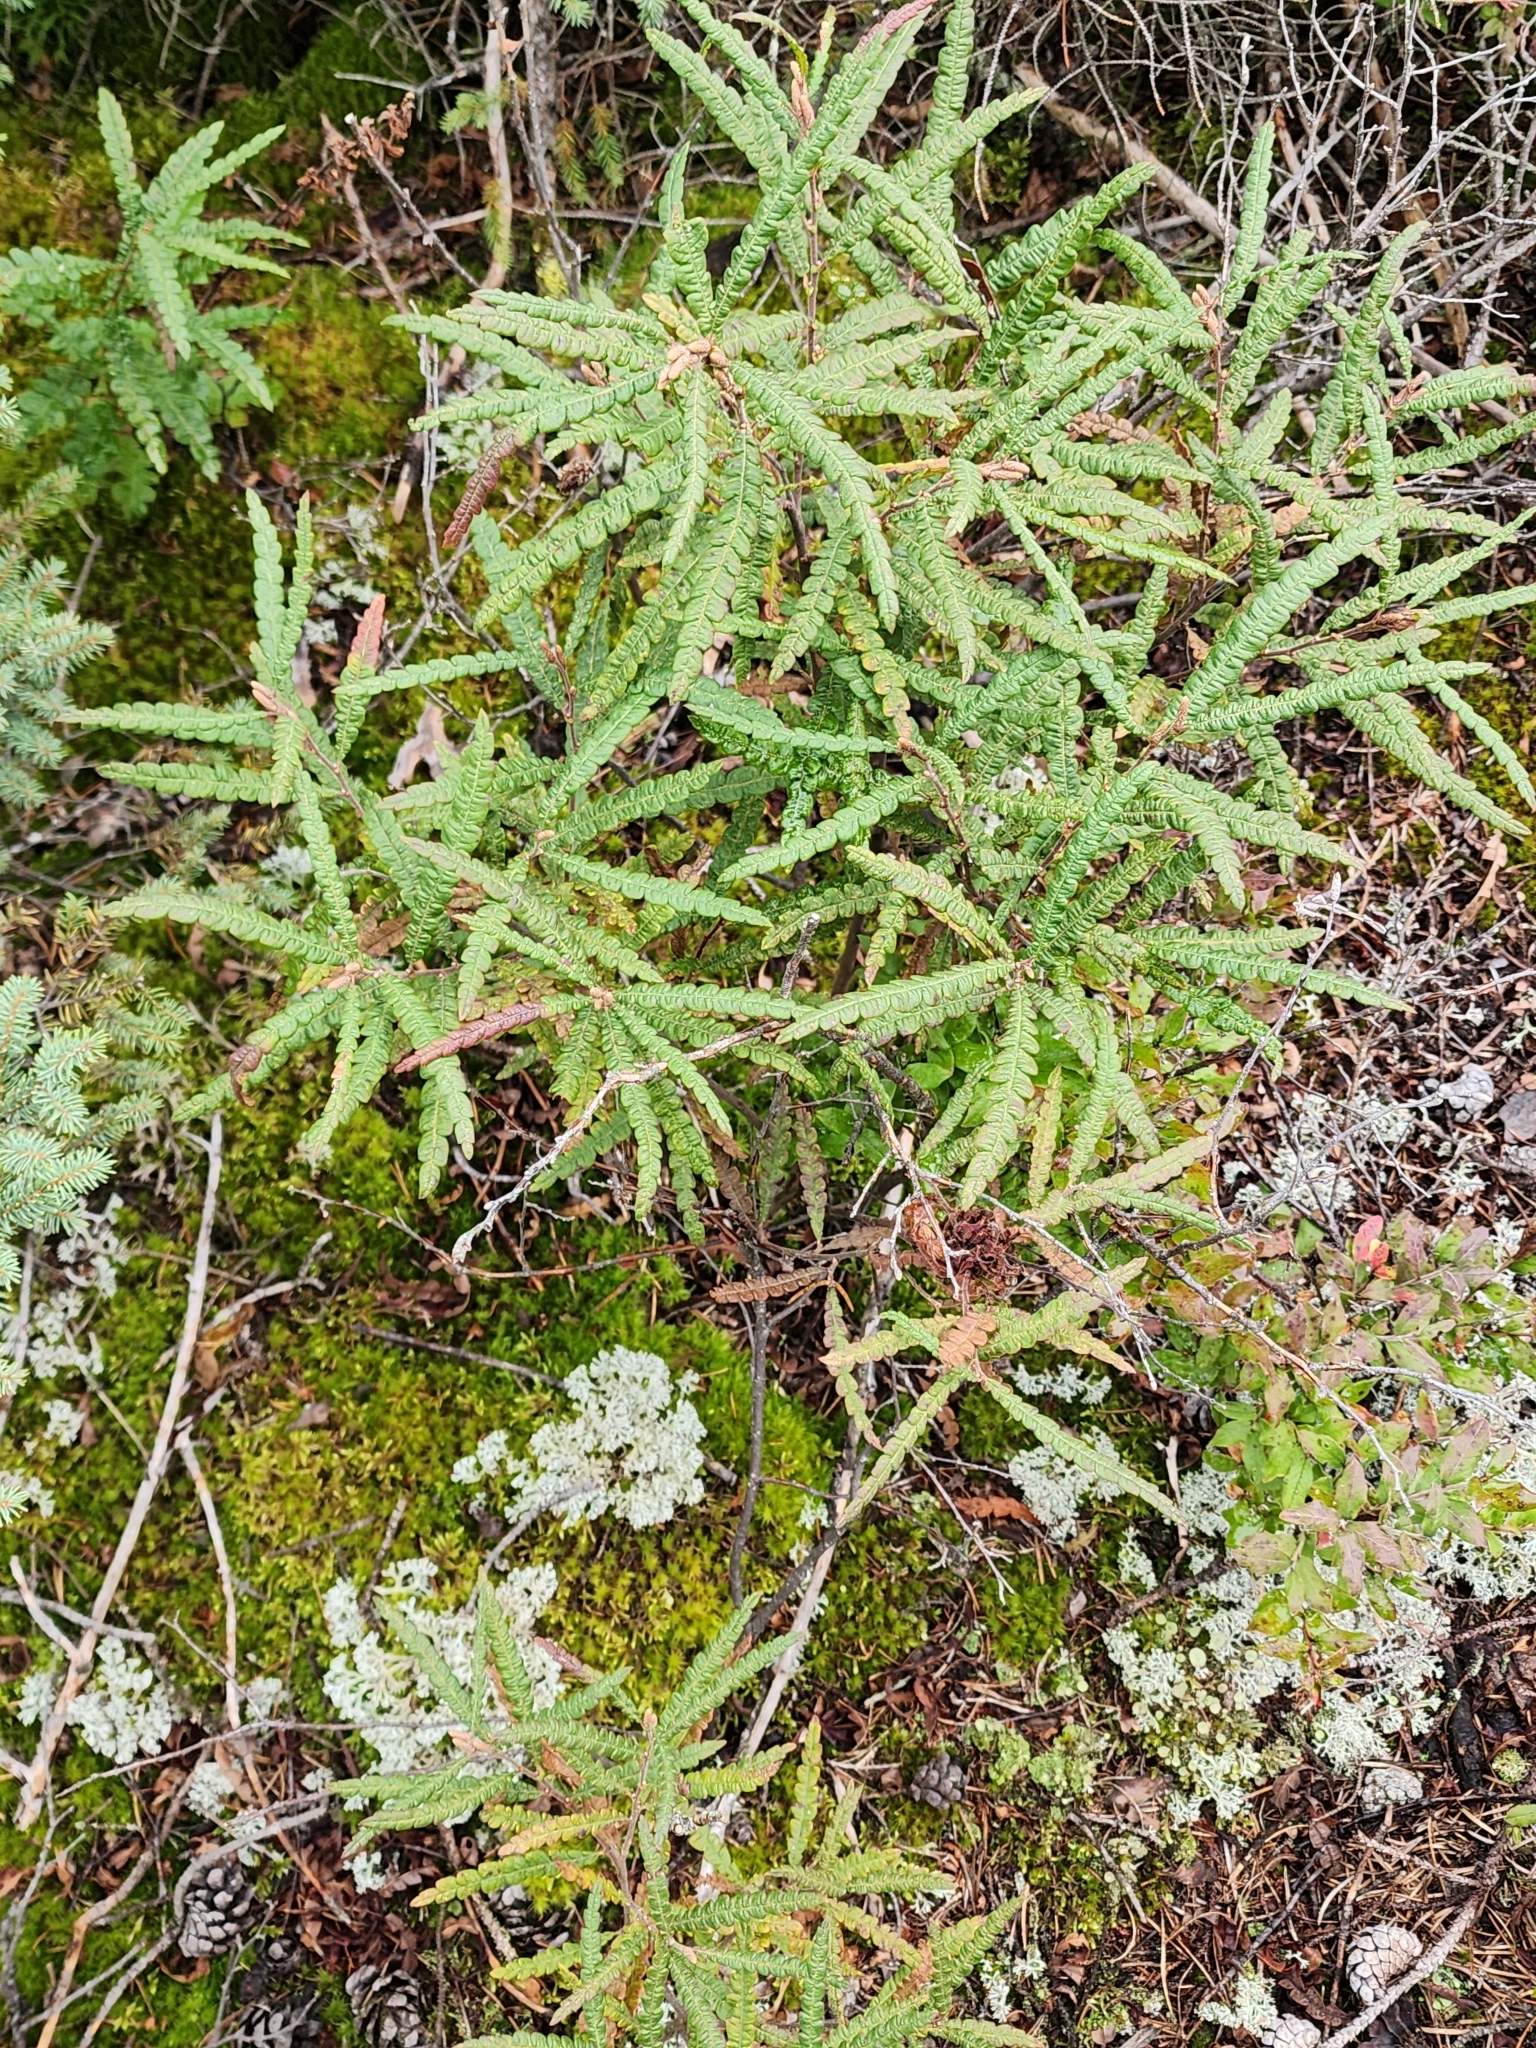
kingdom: Plantae
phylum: Tracheophyta
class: Magnoliopsida
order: Fagales
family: Myricaceae
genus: Comptonia
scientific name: Comptonia peregrina
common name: Sweet-fern
